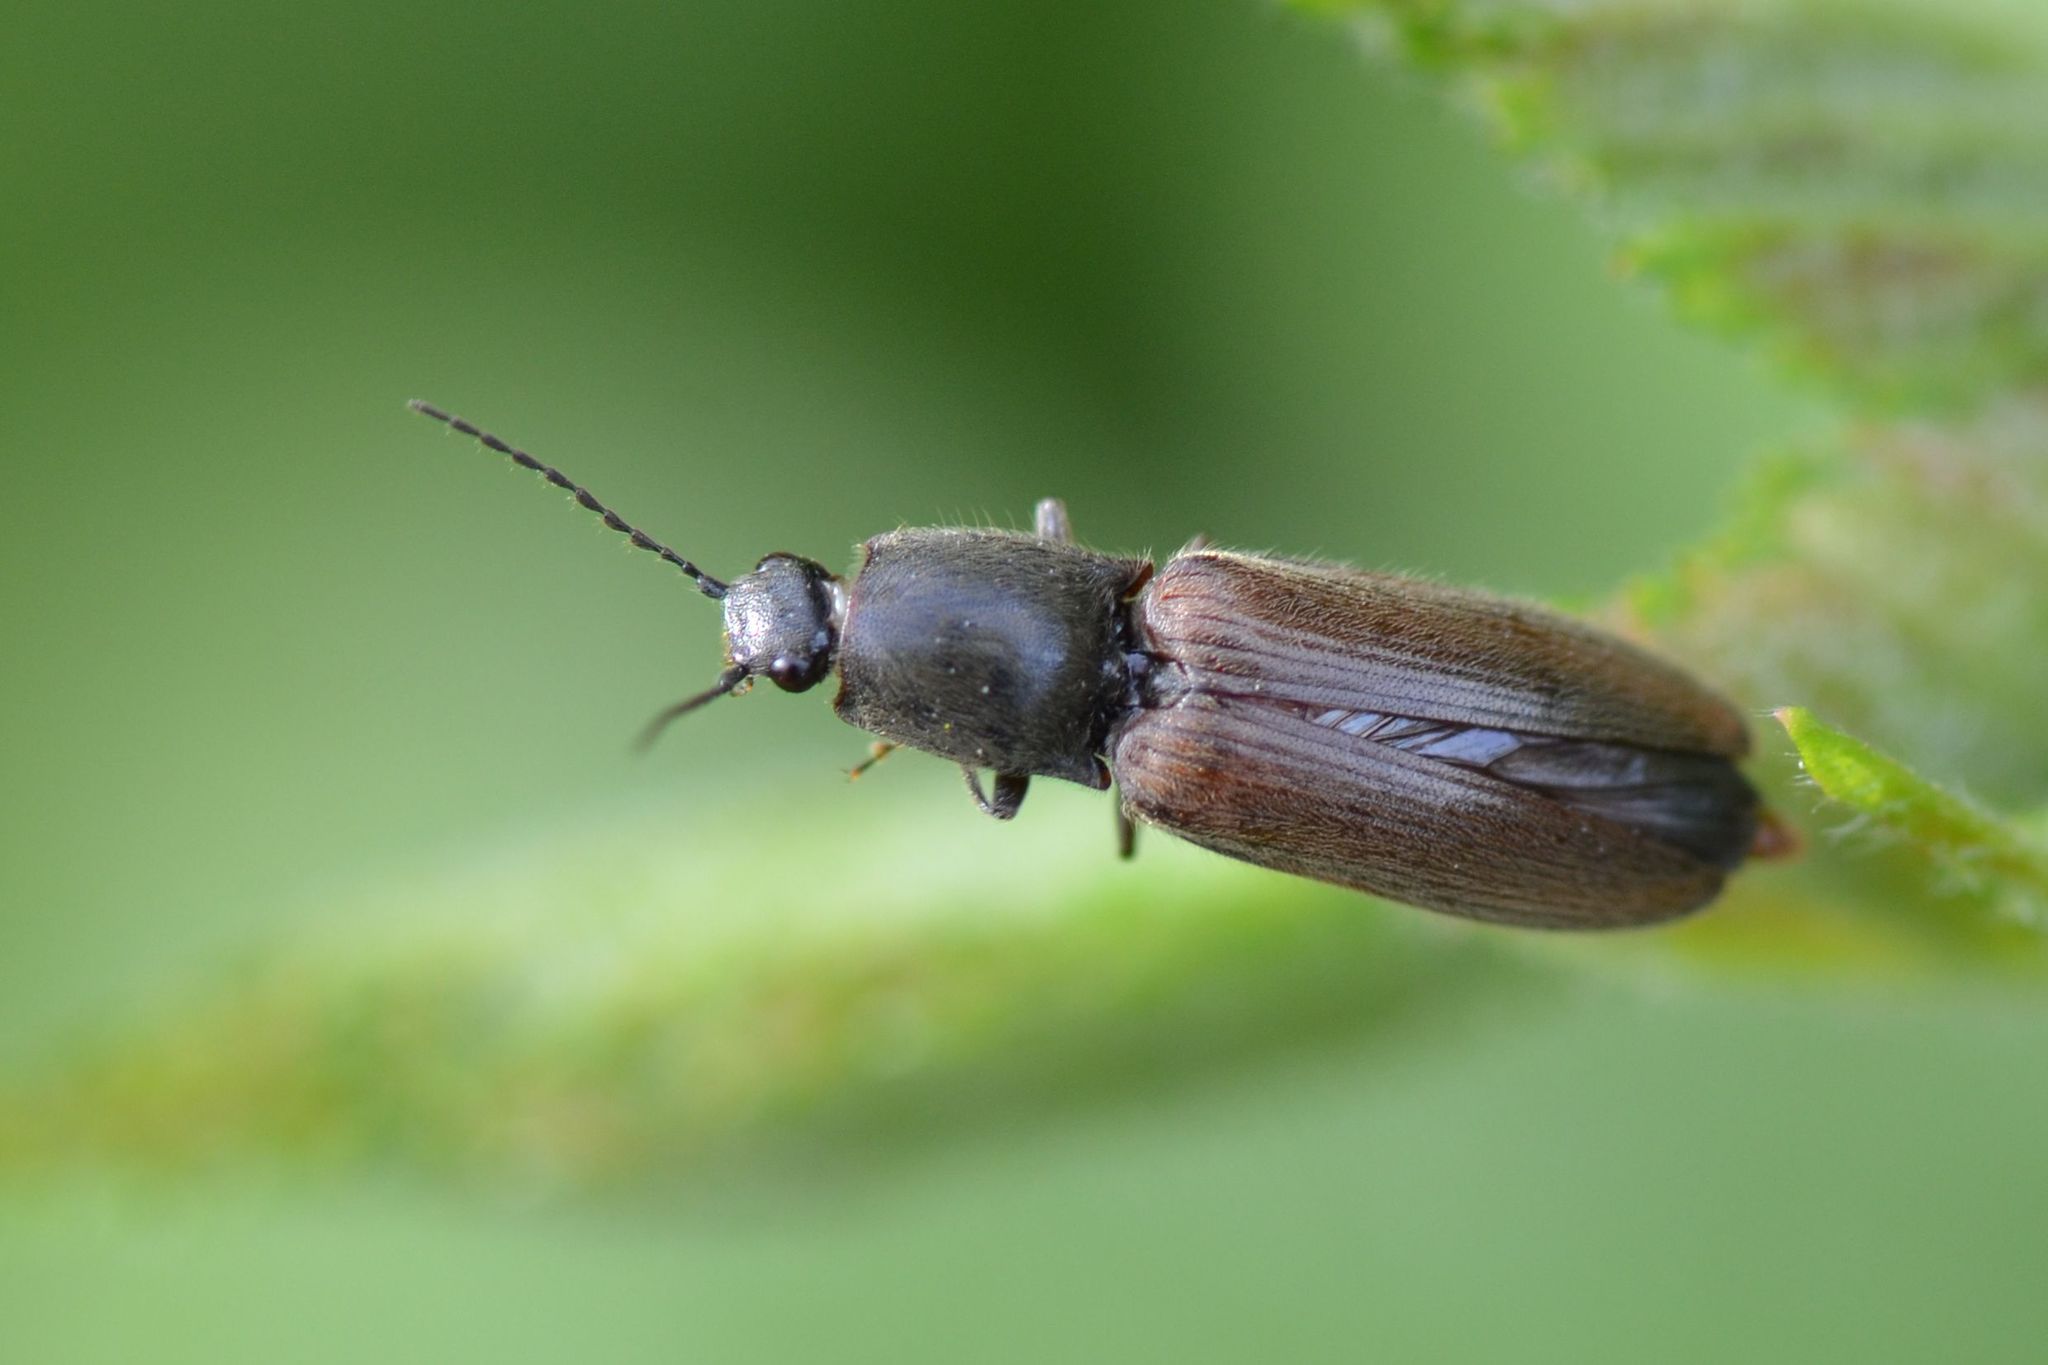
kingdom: Animalia
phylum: Arthropoda
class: Insecta
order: Coleoptera
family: Elateridae
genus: Athous
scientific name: Athous haemorrhoidalis
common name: Red-brown click beetle
